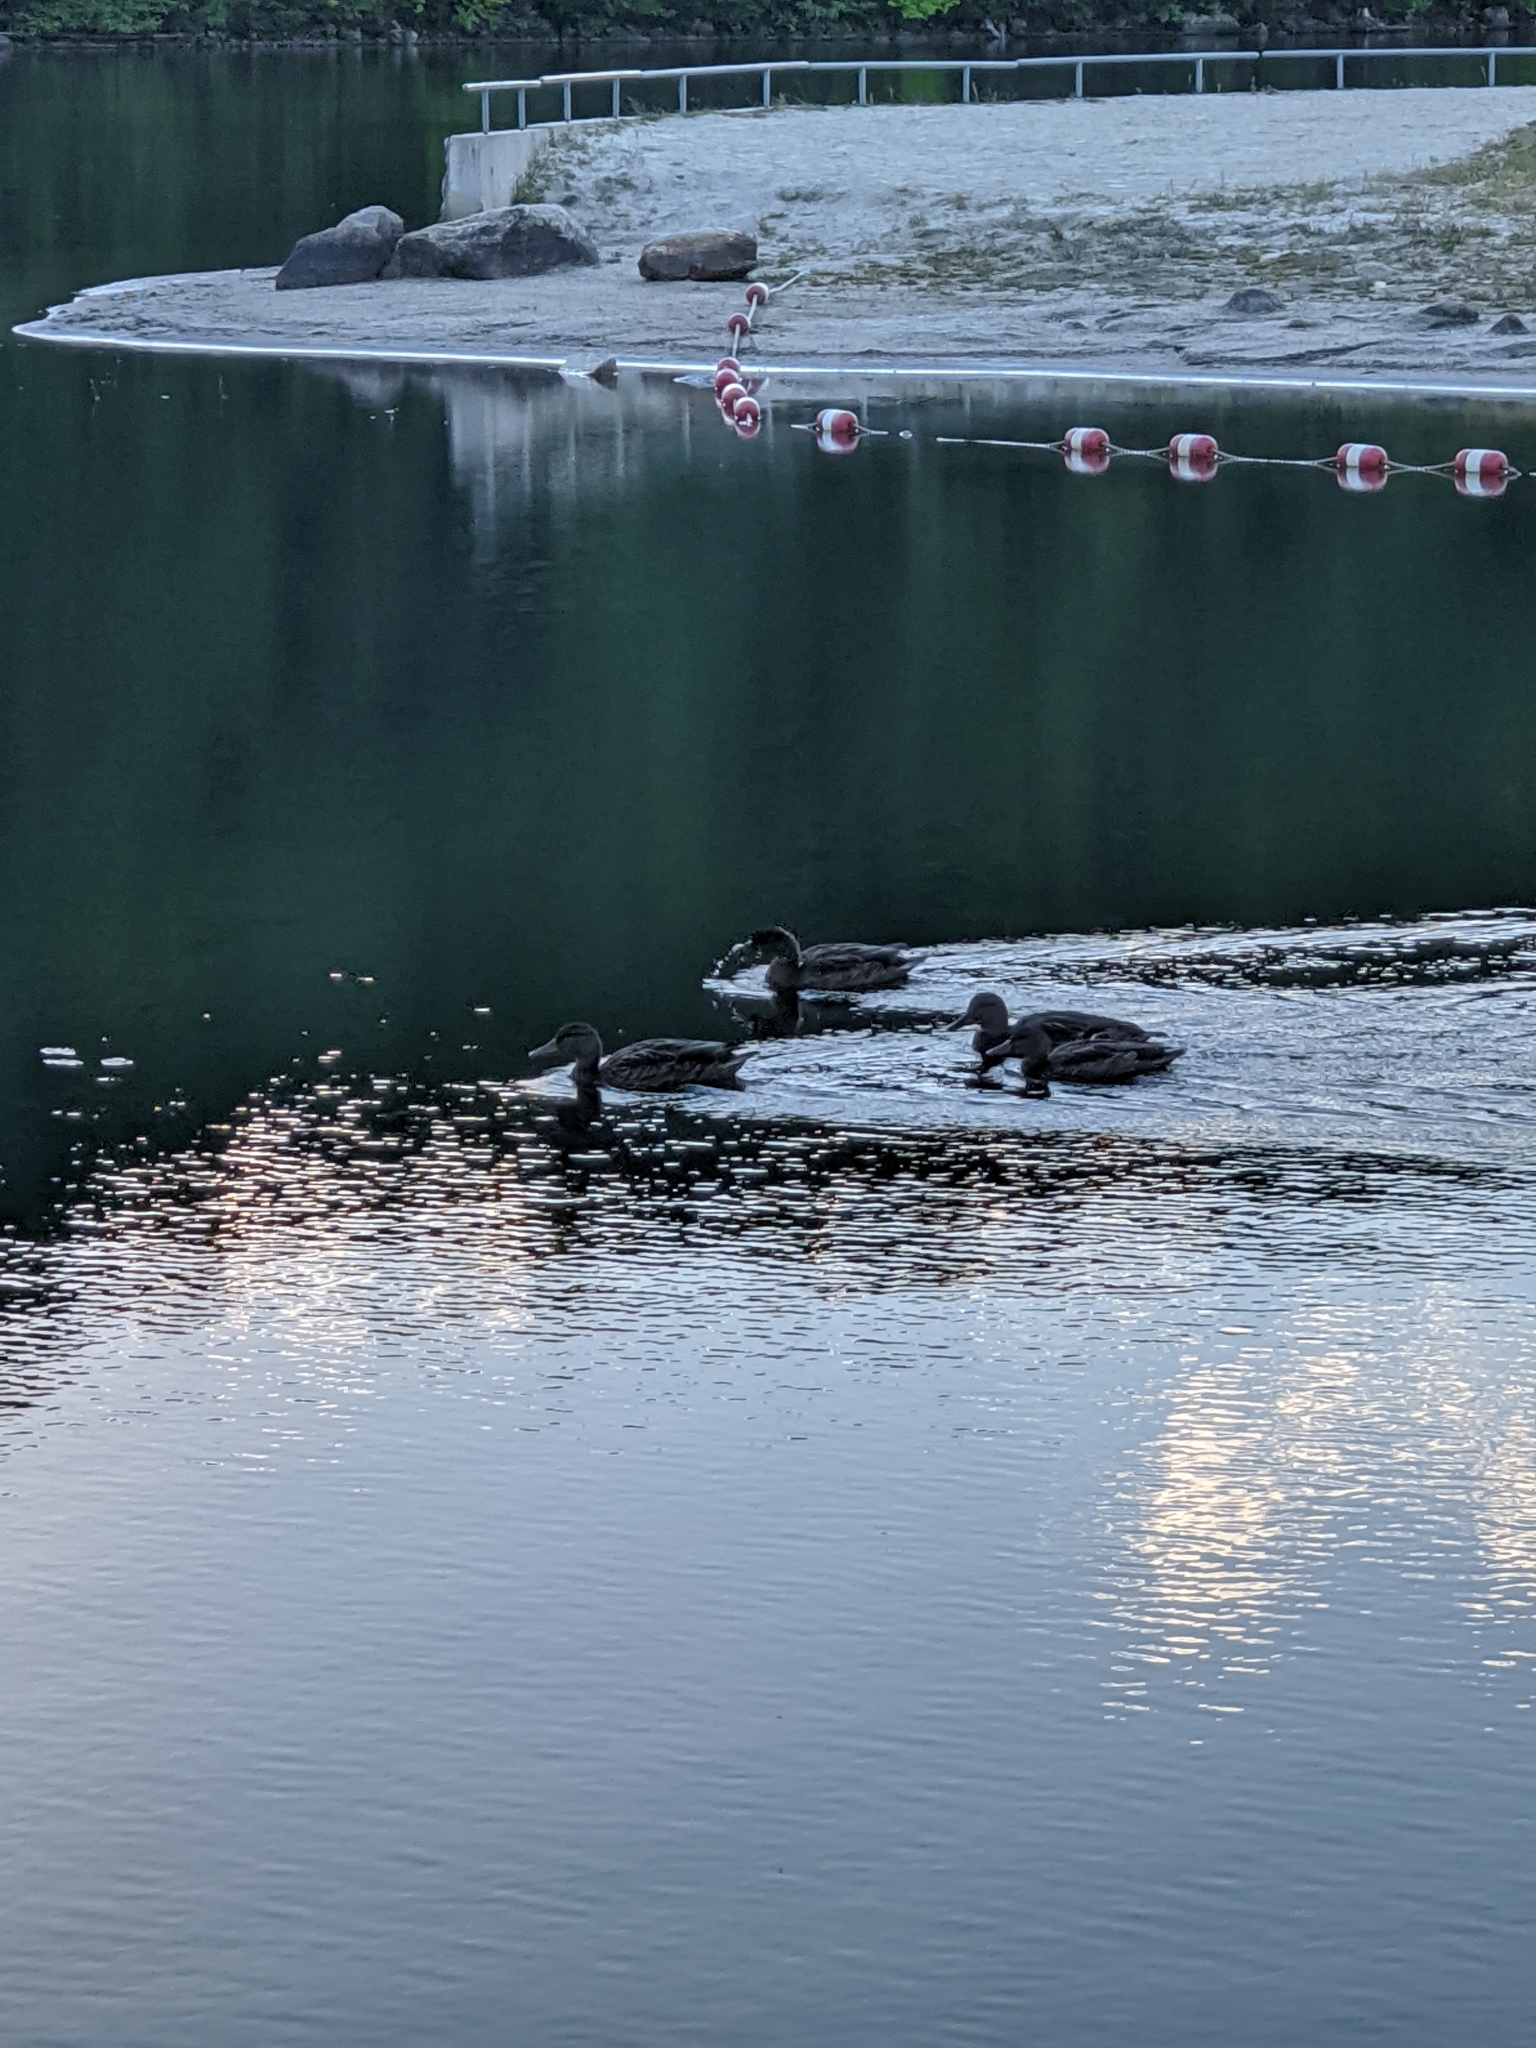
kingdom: Animalia
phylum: Chordata
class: Aves
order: Anseriformes
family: Anatidae
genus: Anas
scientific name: Anas platyrhynchos
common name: Mallard
